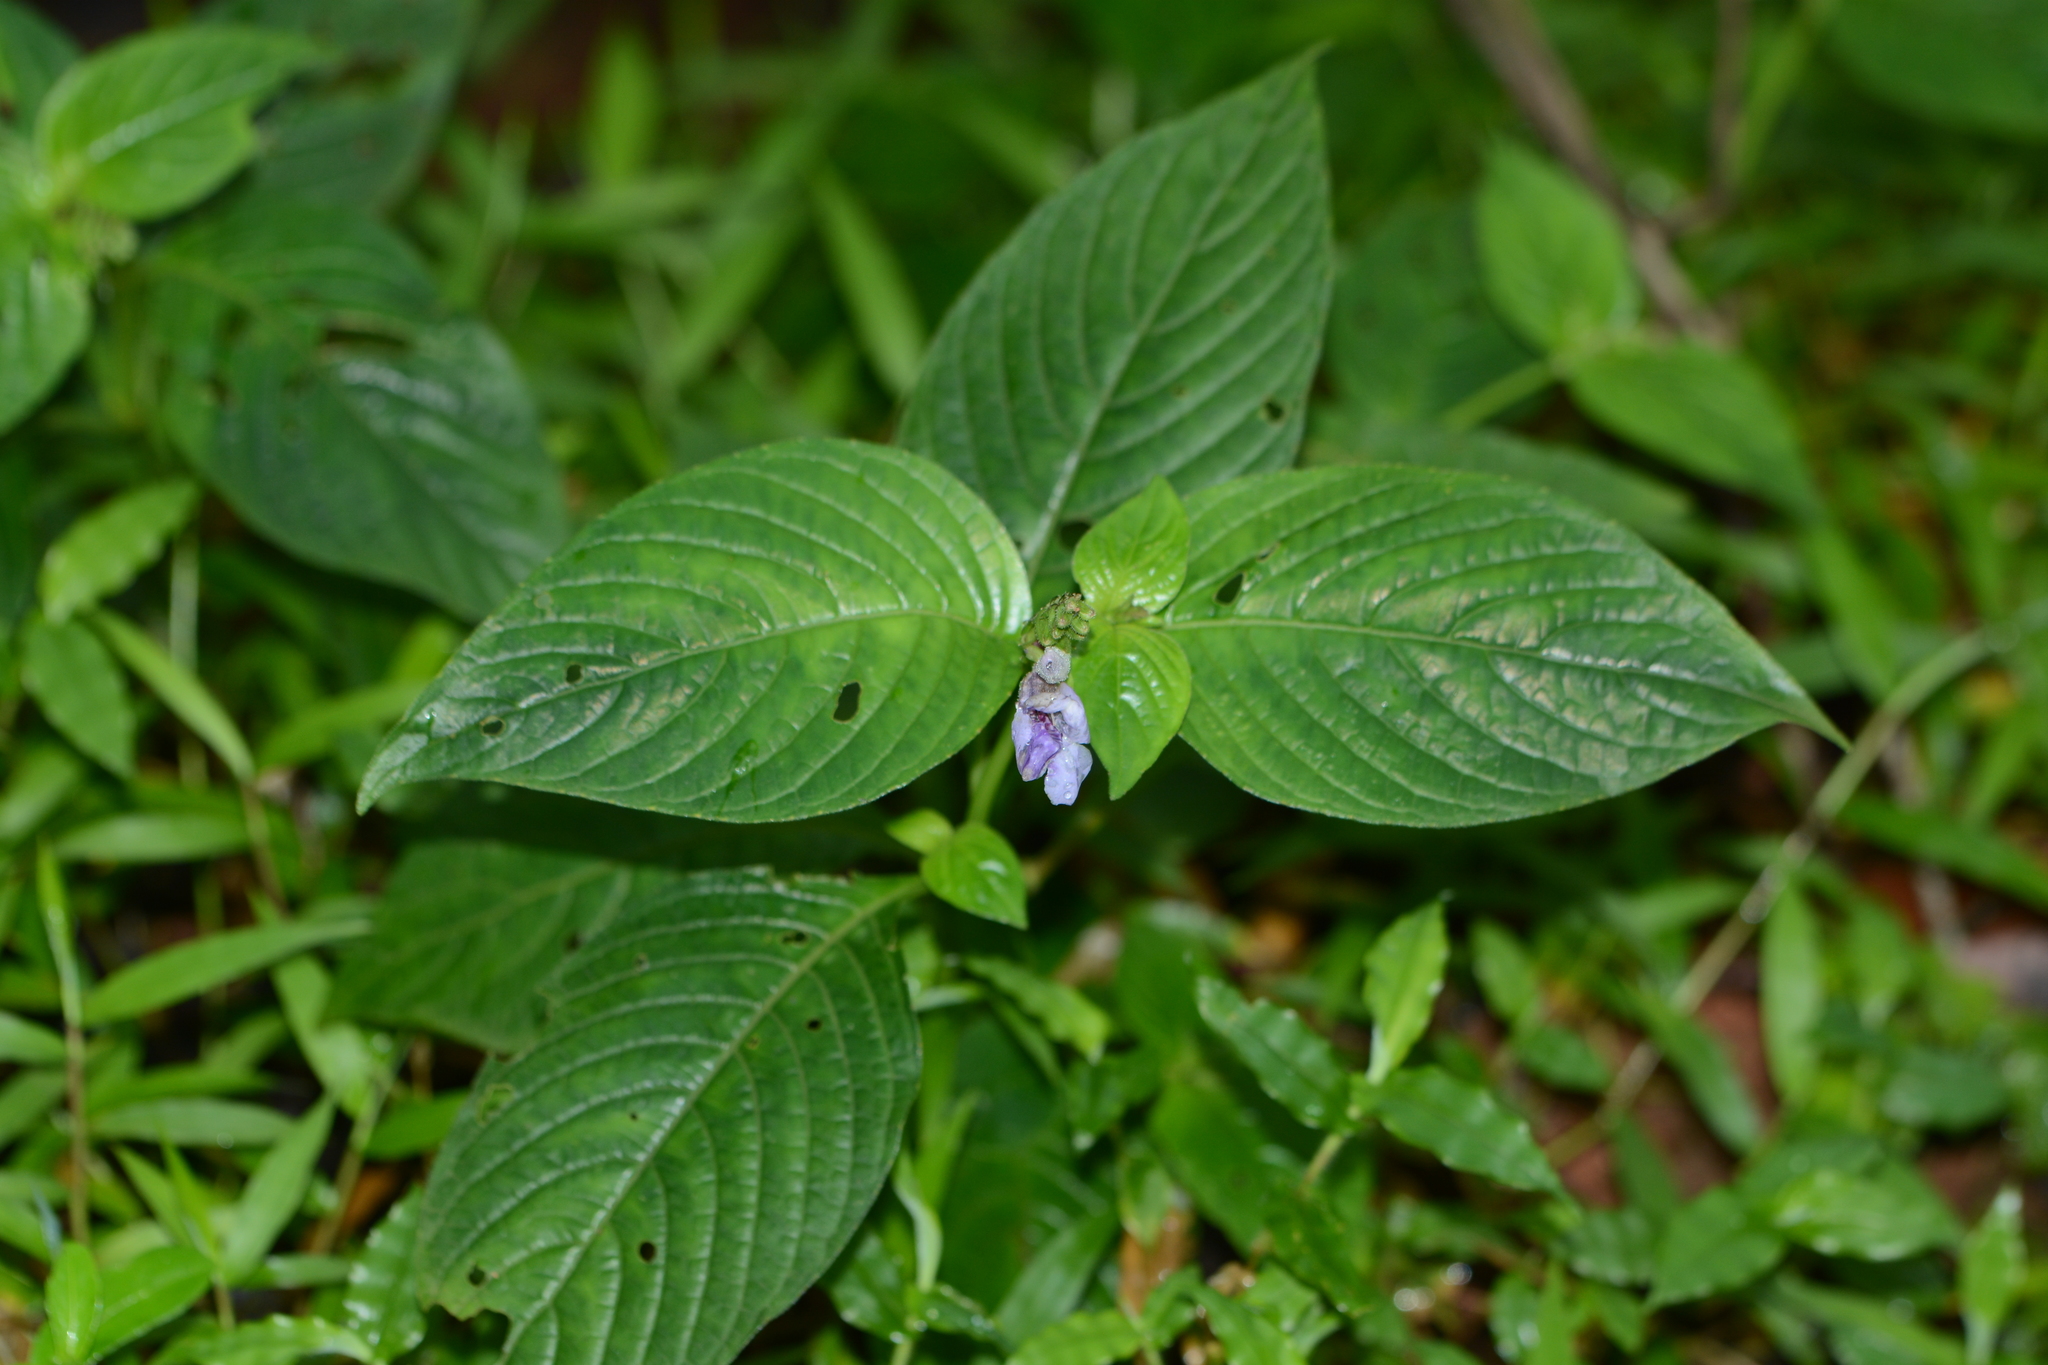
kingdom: Plantae
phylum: Tracheophyta
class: Liliopsida
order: Asparagales
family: Orchidaceae
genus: Habenaria
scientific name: Habenaria digitata
